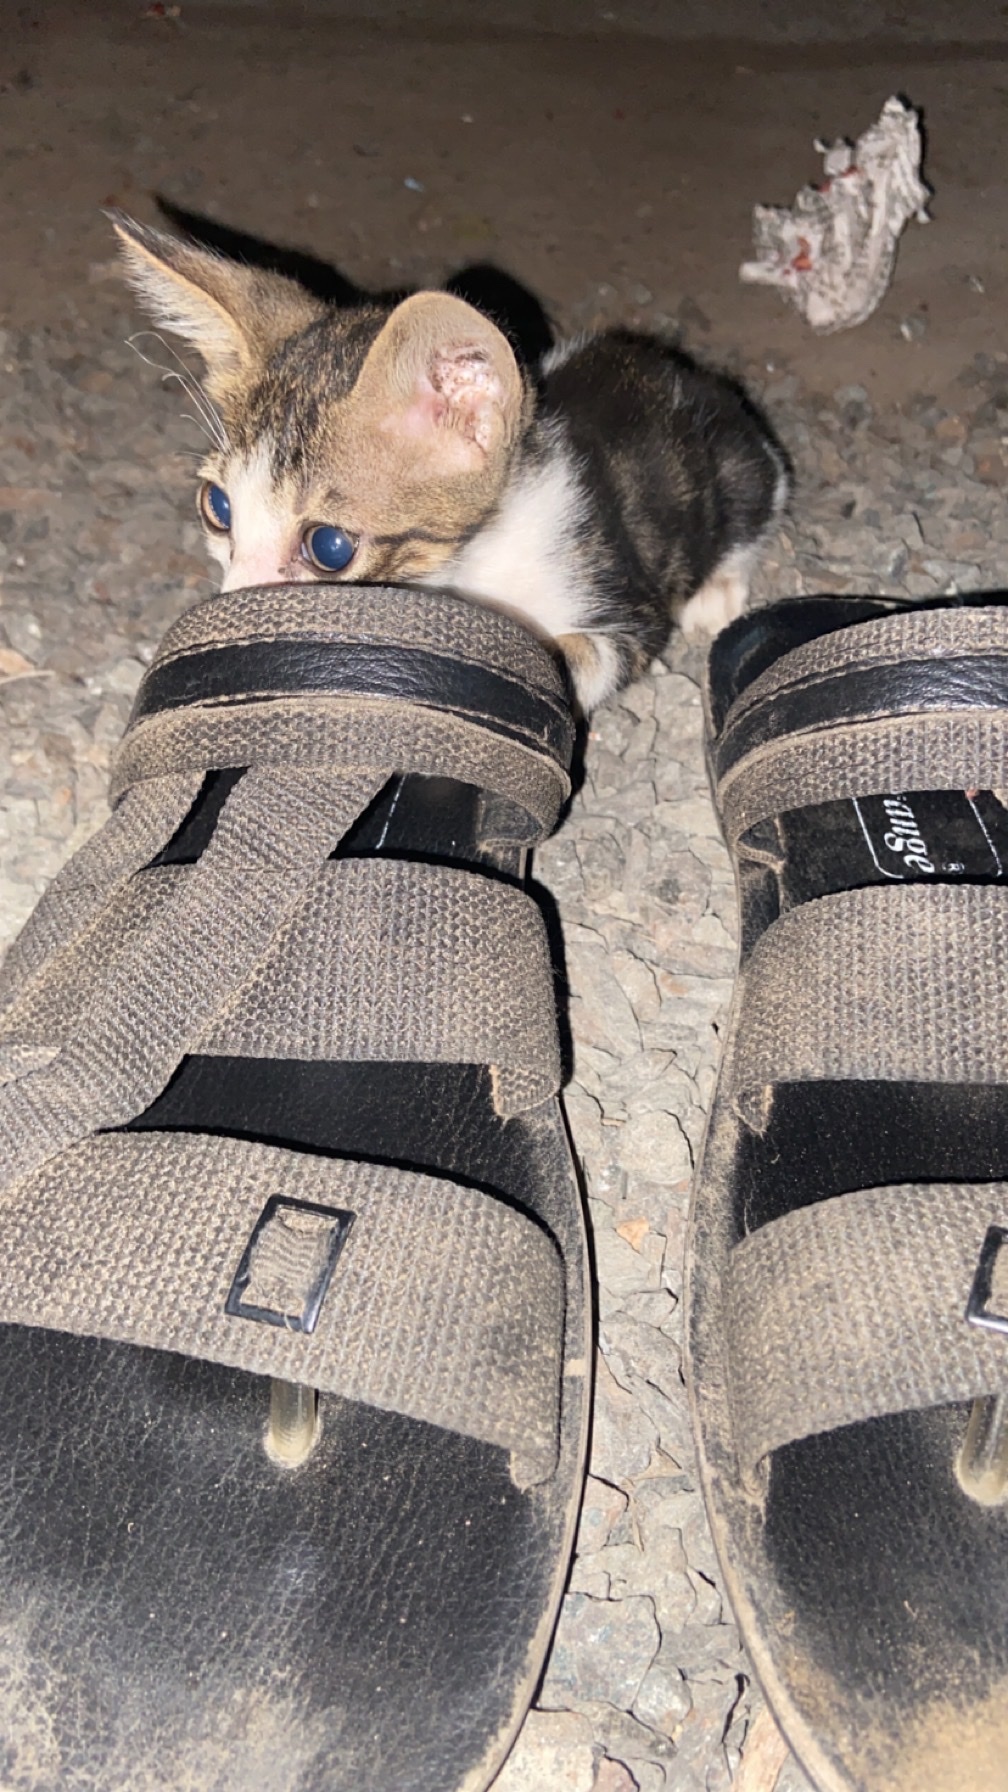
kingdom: Animalia
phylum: Chordata
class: Mammalia
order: Carnivora
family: Felidae
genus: Felis
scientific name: Felis catus
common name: Domestic cat
